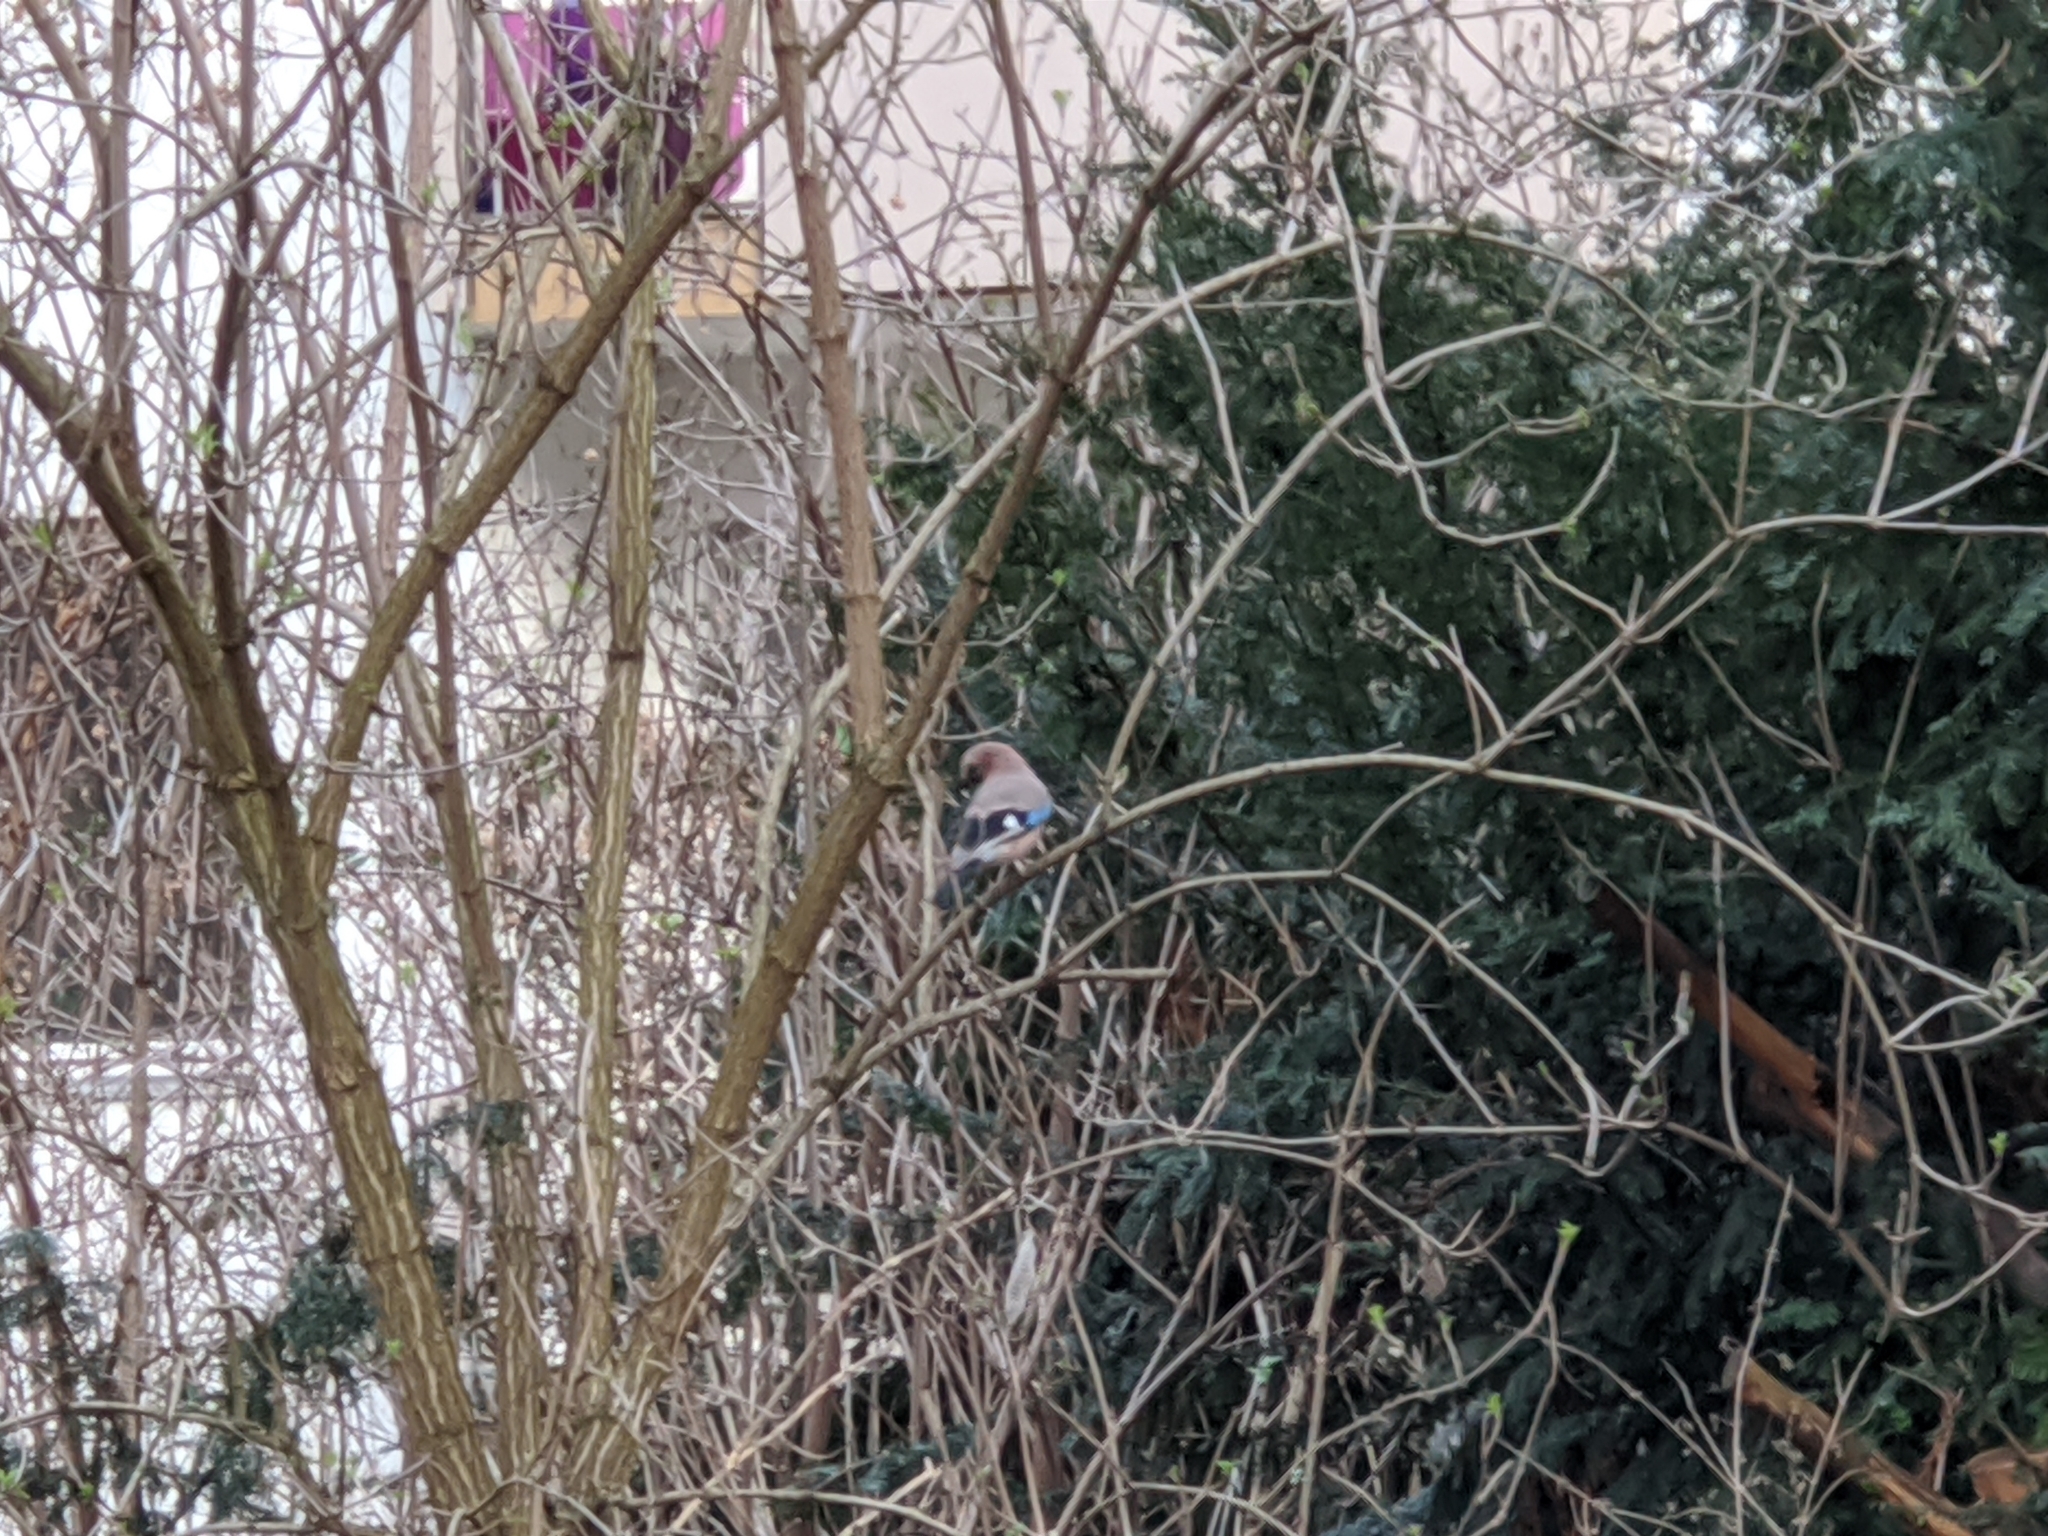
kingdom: Animalia
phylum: Chordata
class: Aves
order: Passeriformes
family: Corvidae
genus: Garrulus
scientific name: Garrulus glandarius
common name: Eurasian jay
